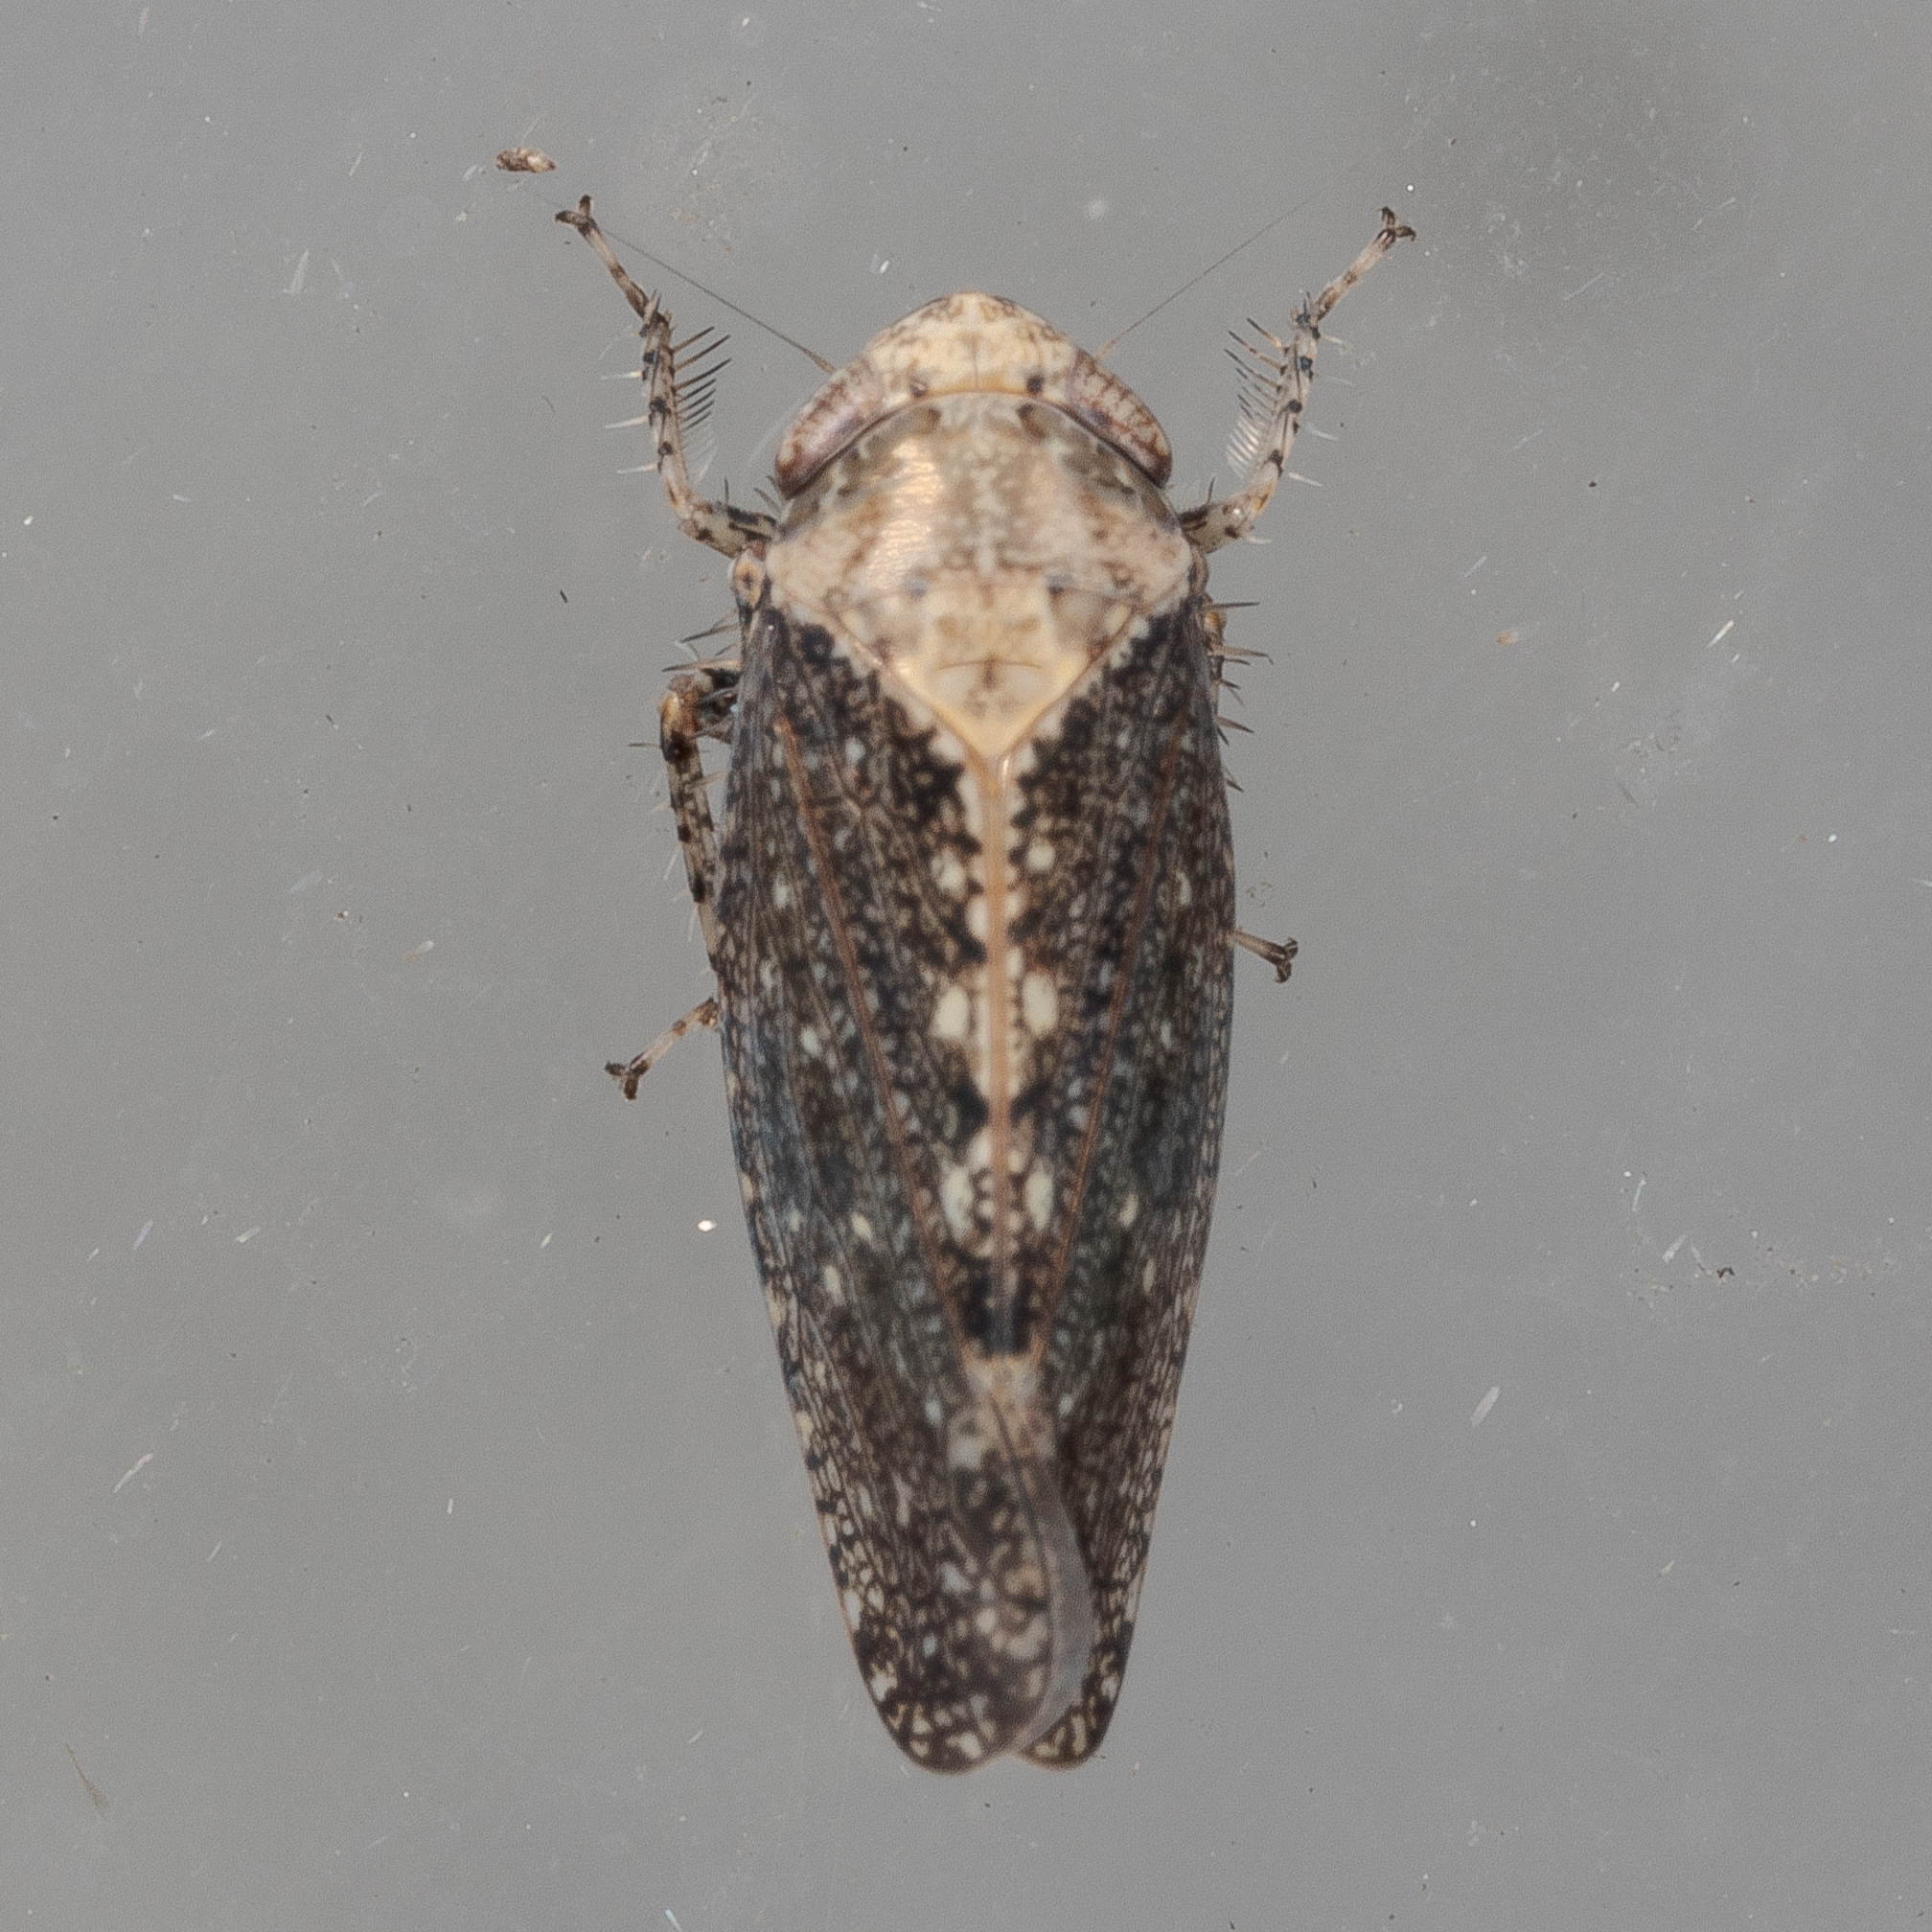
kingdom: Animalia
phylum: Arthropoda
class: Insecta
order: Hemiptera
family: Cicadellidae
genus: Excultanus
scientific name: Excultanus excultus
